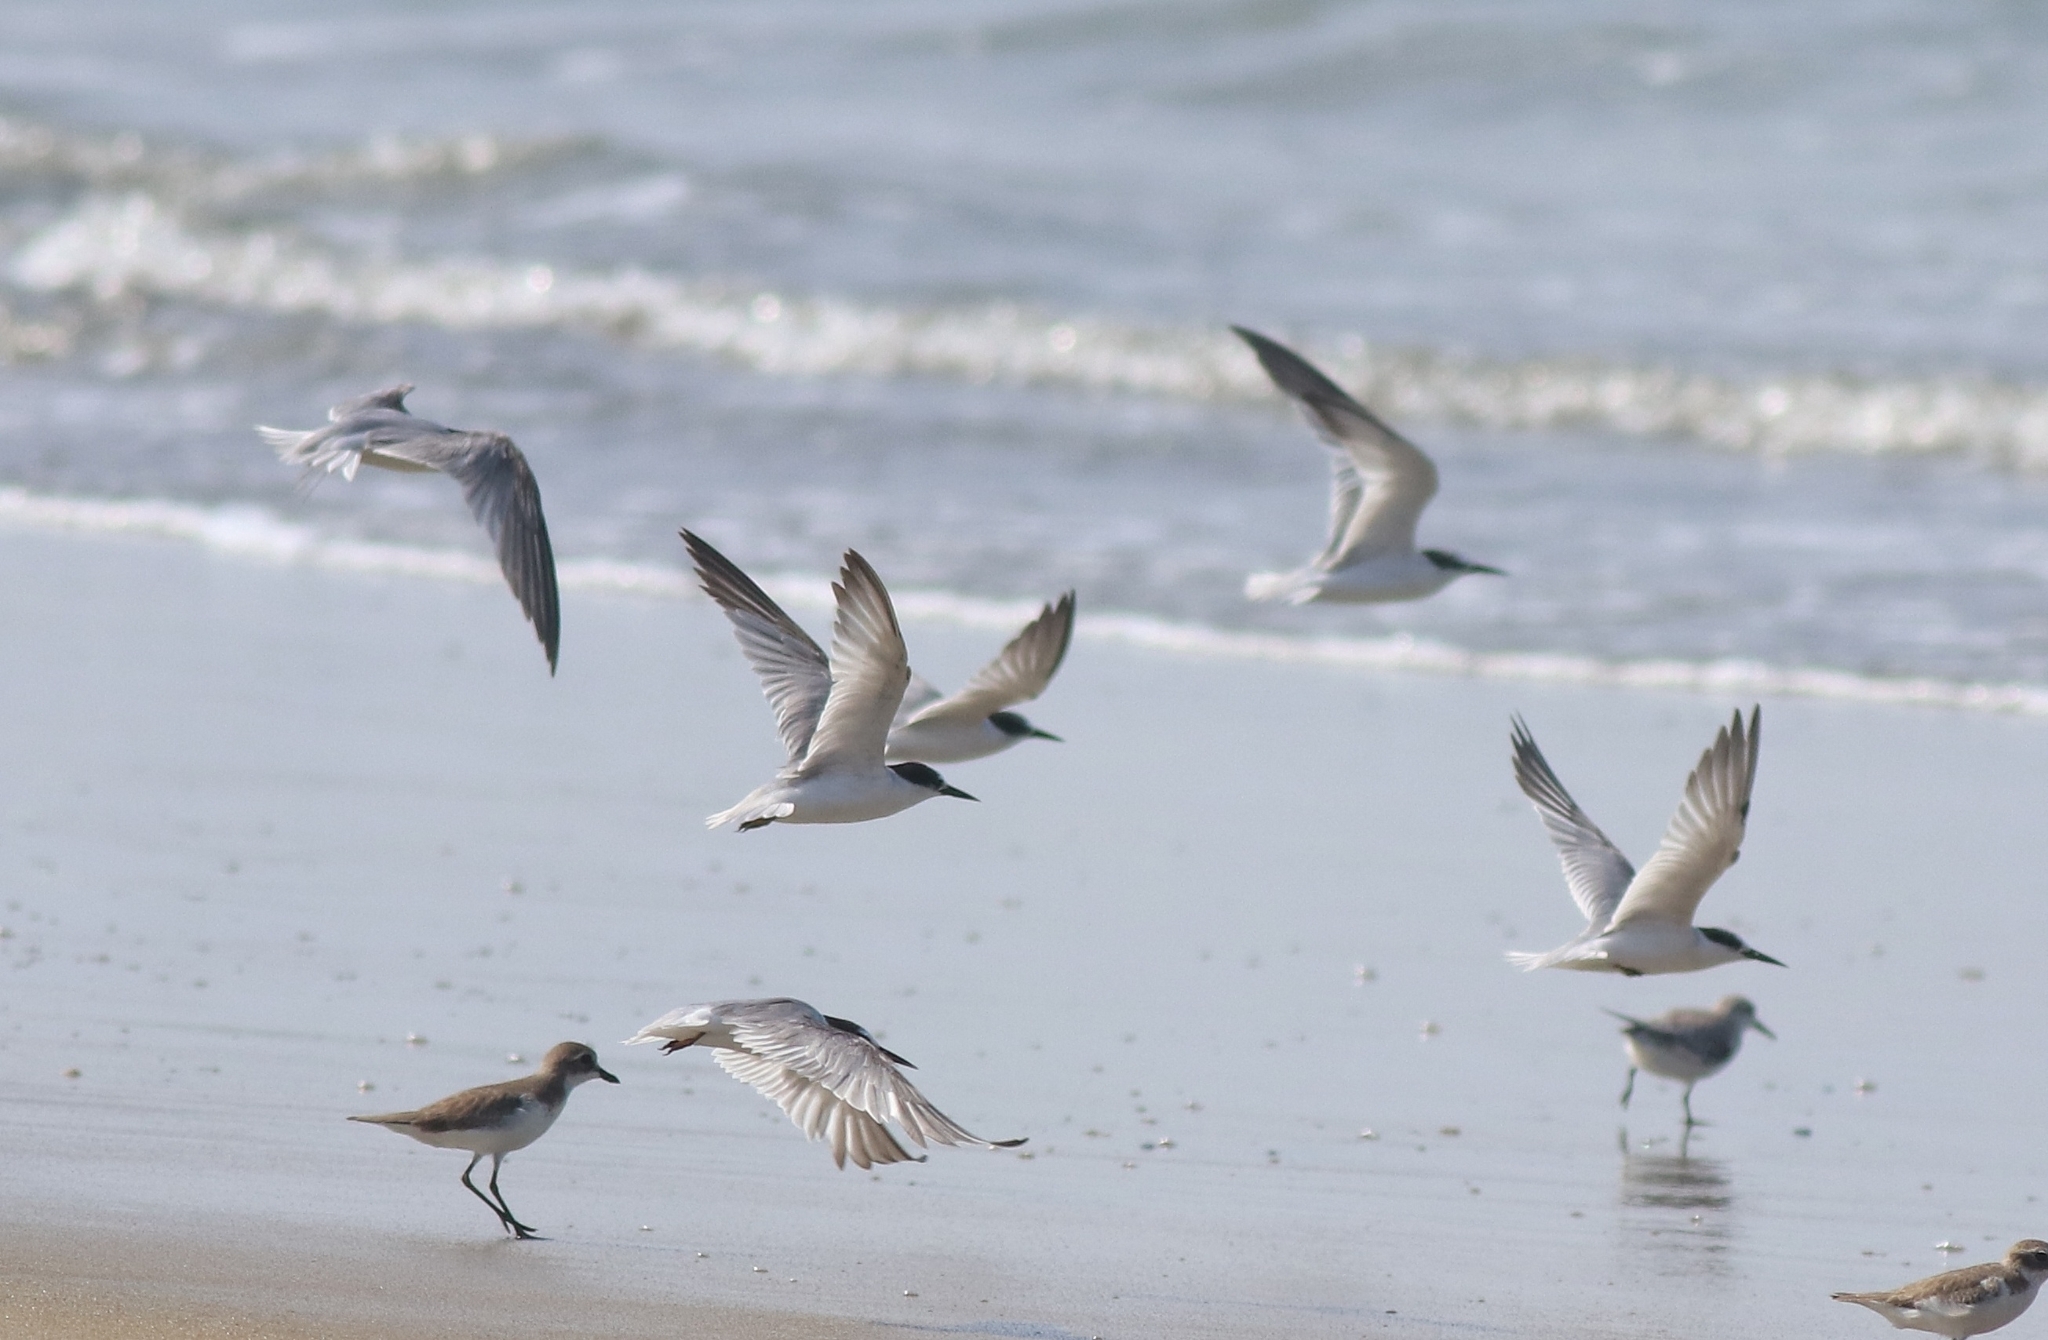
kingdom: Animalia
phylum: Chordata
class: Aves
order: Charadriiformes
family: Laridae
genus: Sternula
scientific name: Sternula albifrons
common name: Little tern
